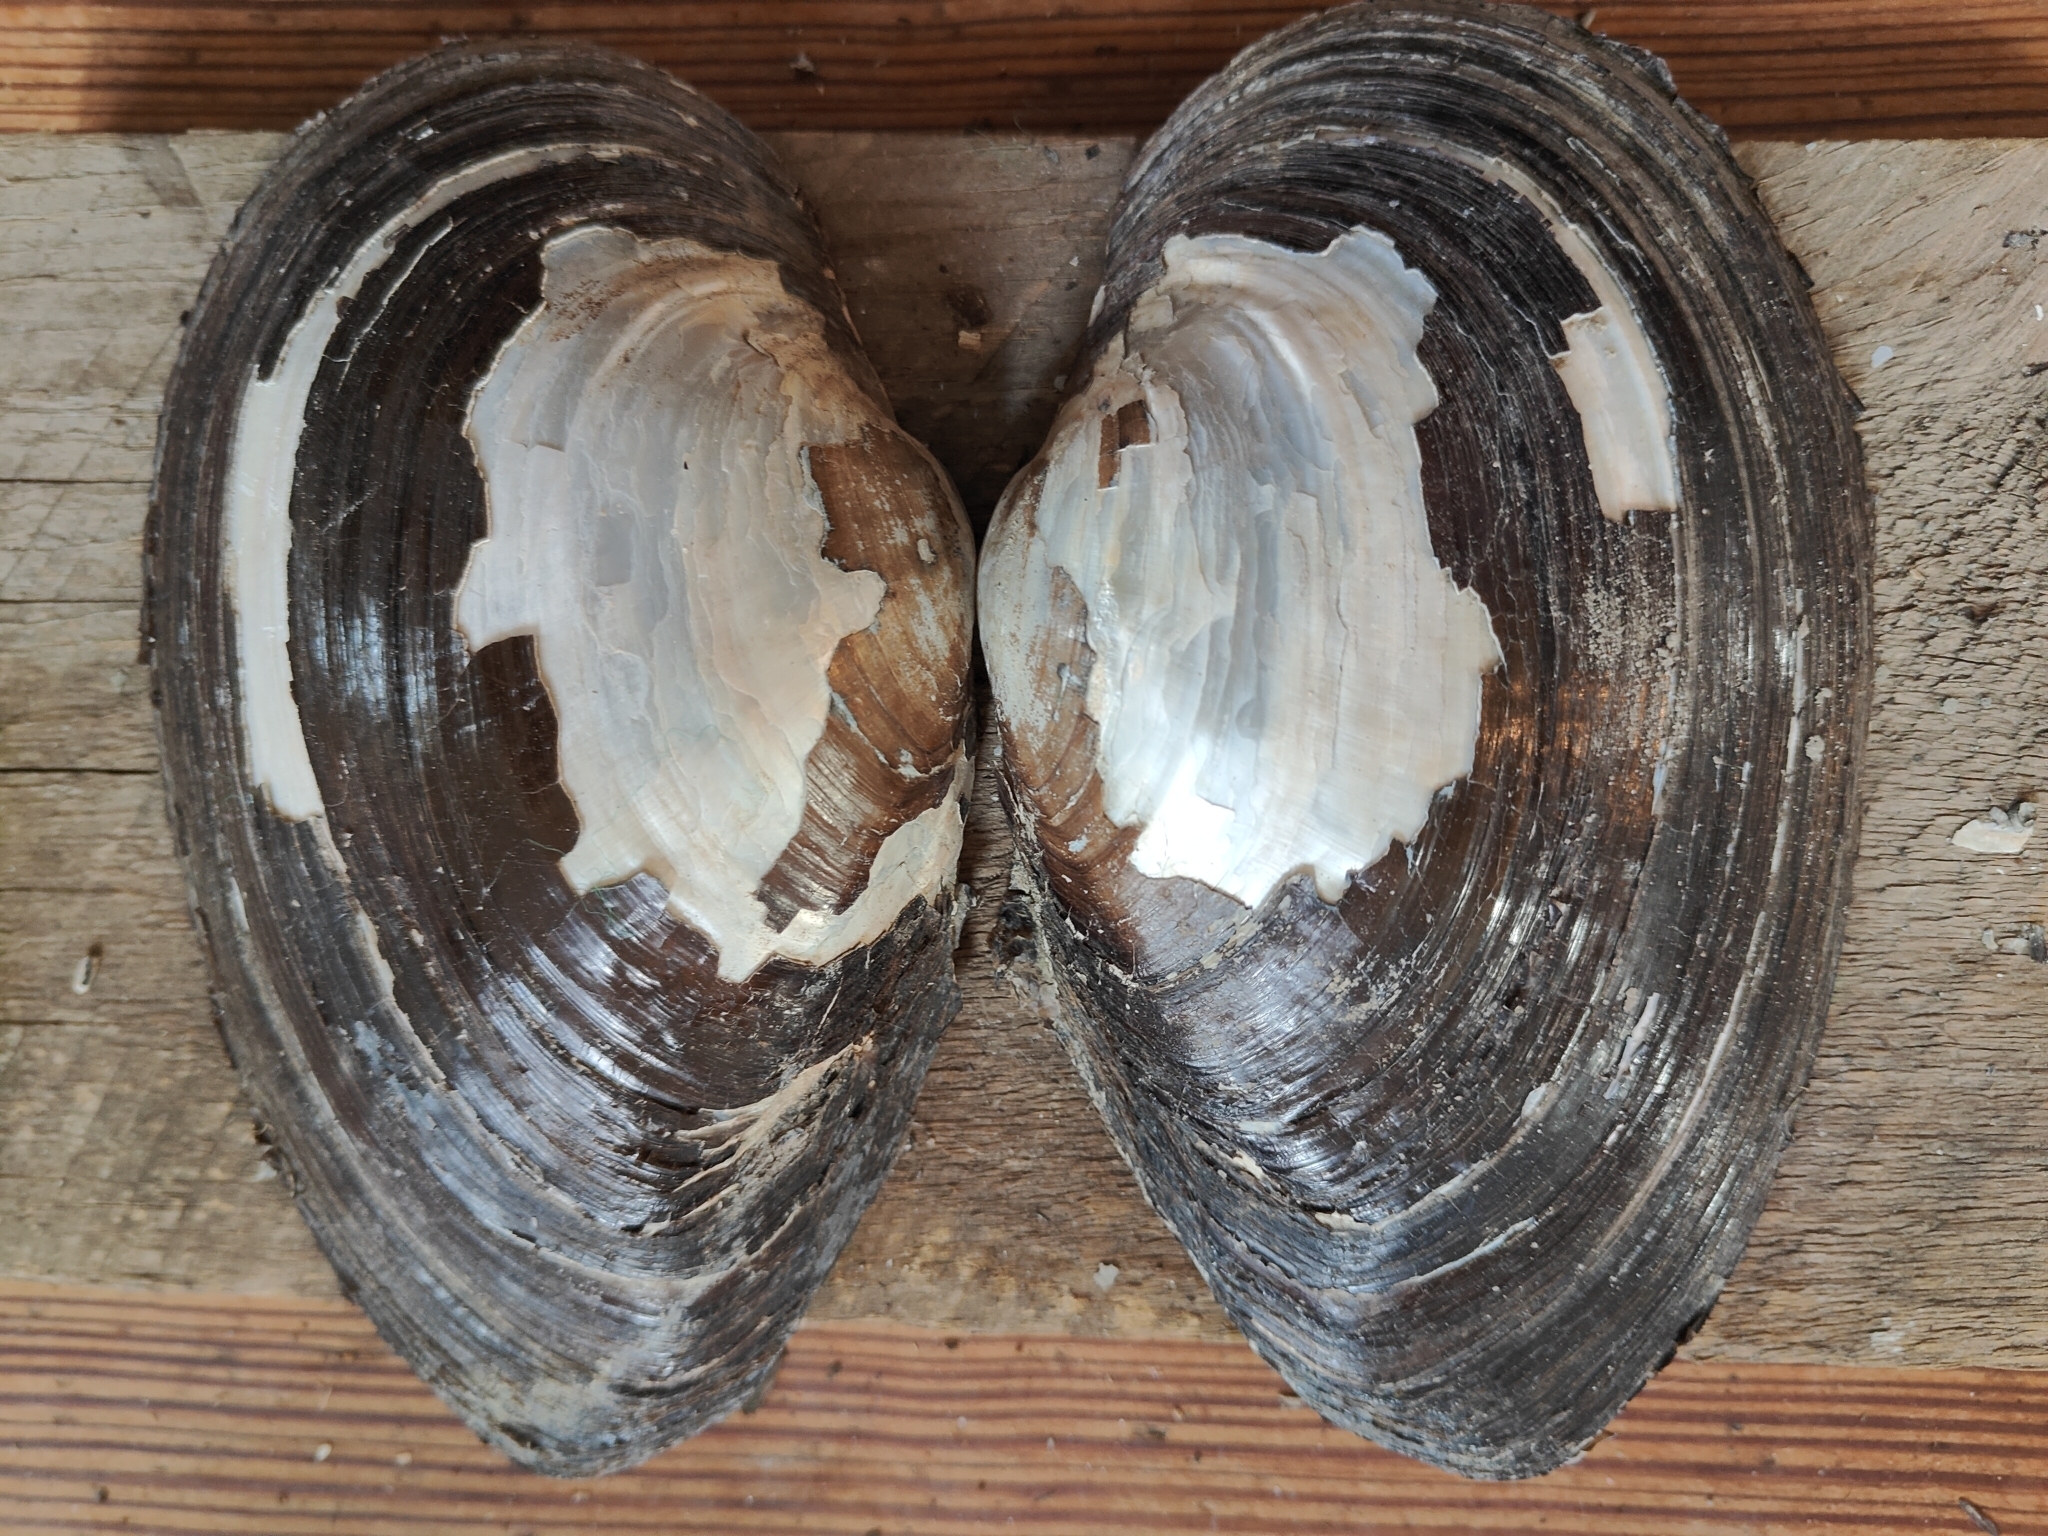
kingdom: Animalia
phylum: Mollusca
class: Bivalvia
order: Unionida
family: Unionidae
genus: Pyganodon
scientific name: Pyganodon grandis
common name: Giant floater
